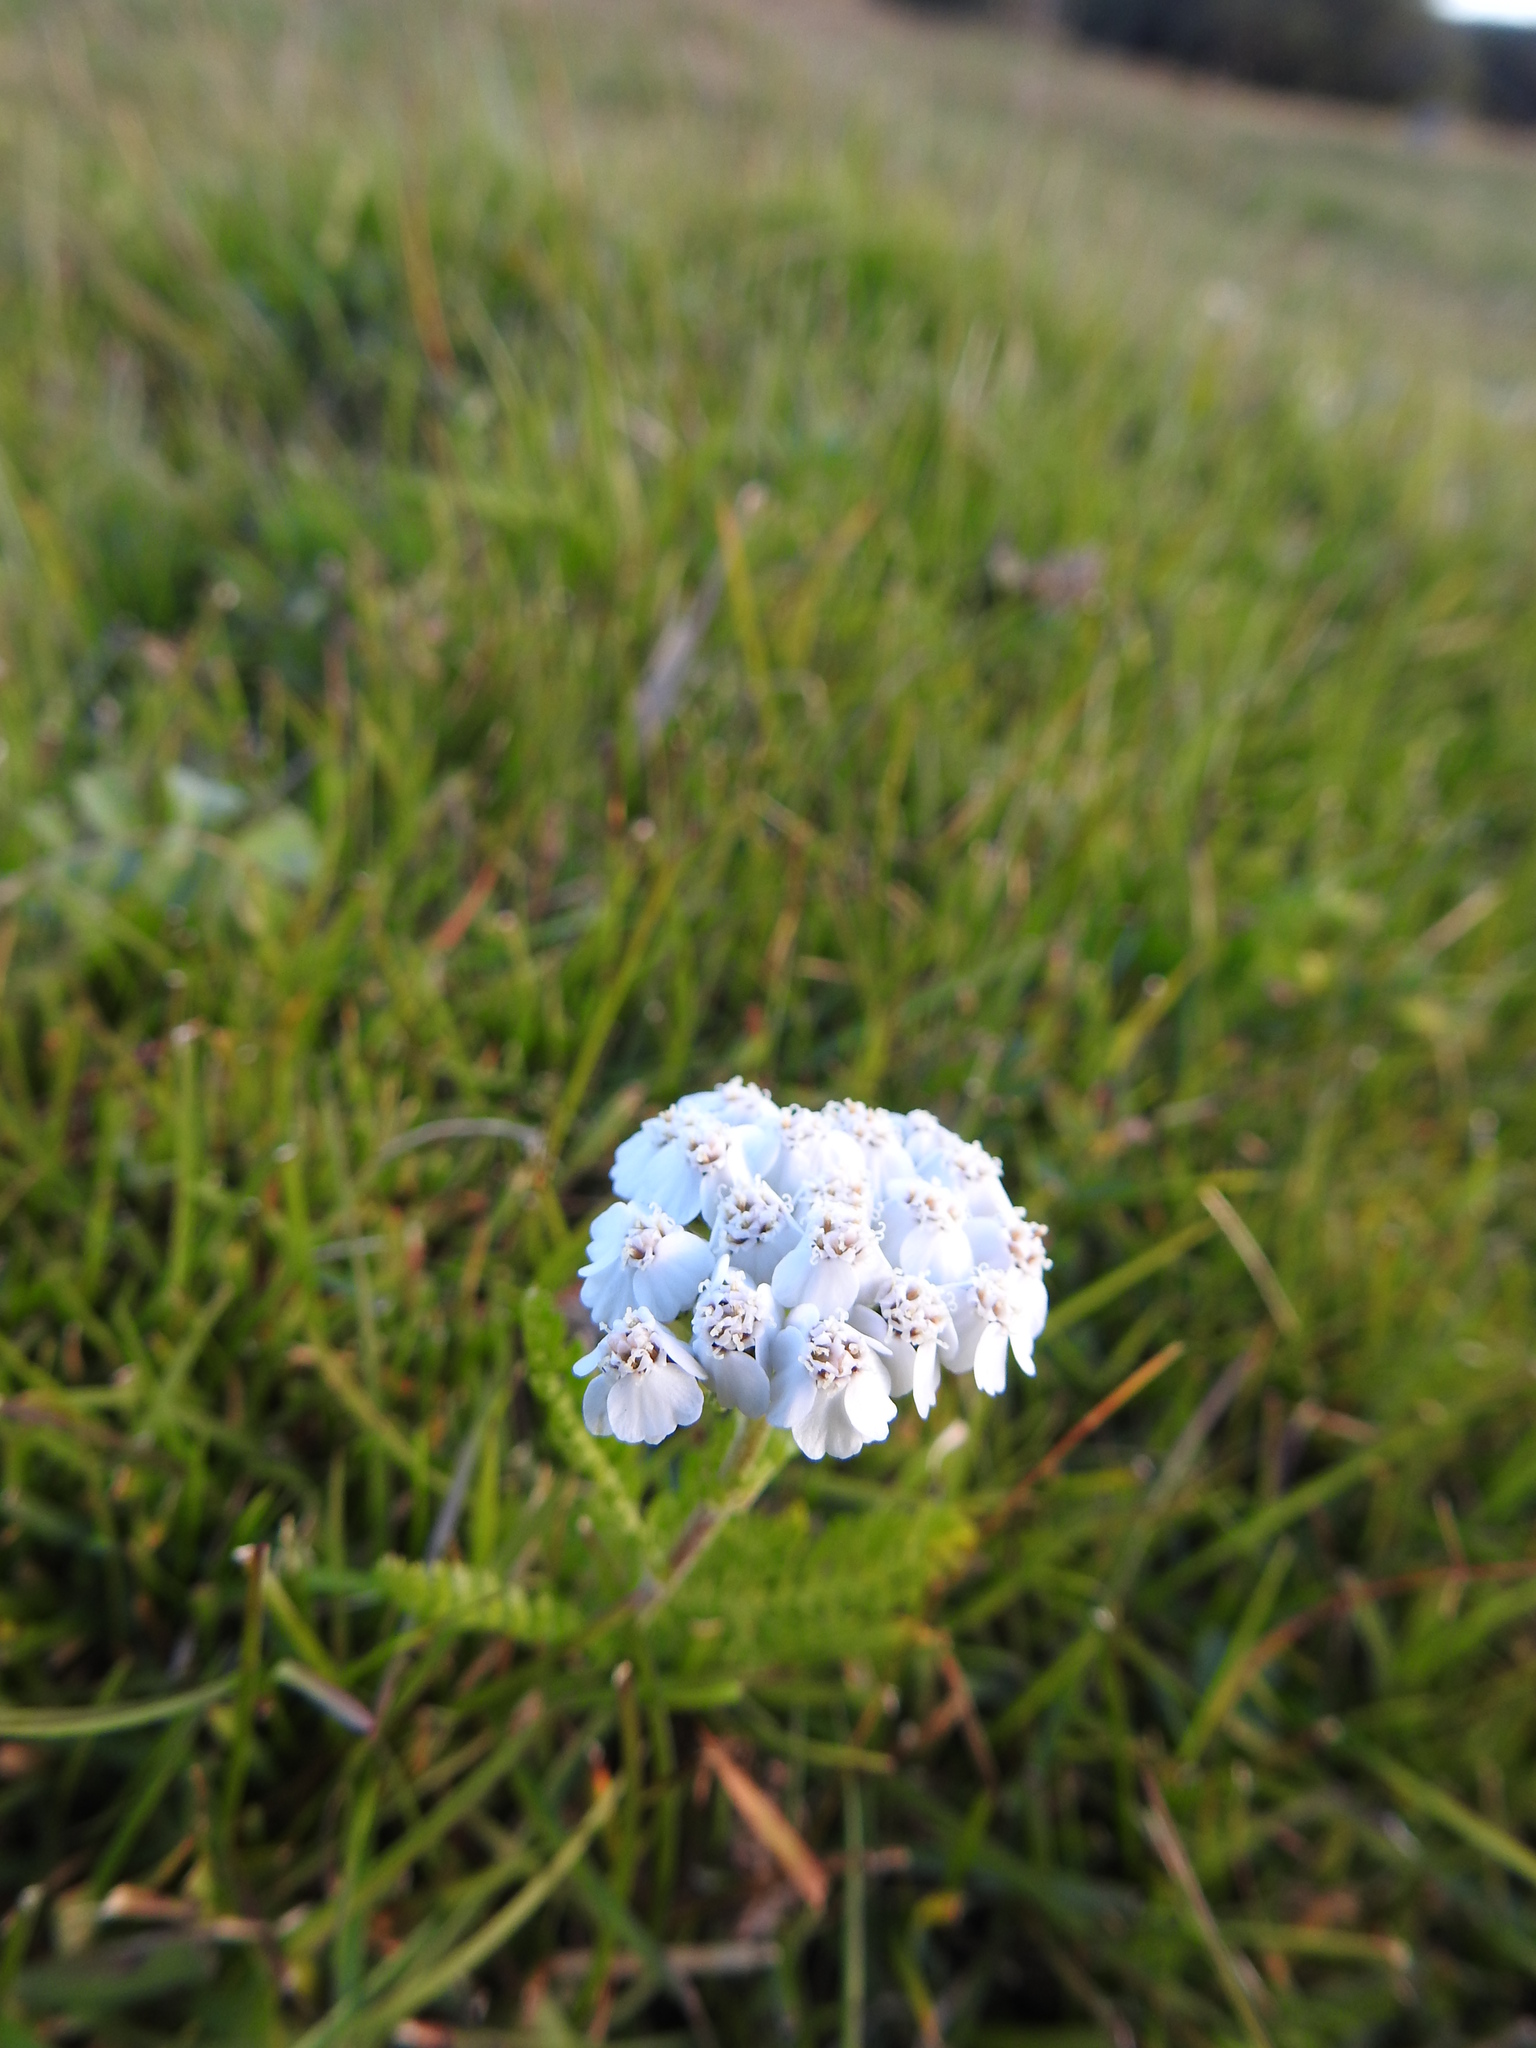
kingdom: Plantae
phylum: Tracheophyta
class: Magnoliopsida
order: Asterales
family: Asteraceae
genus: Achillea
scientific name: Achillea millefolium
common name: Yarrow
